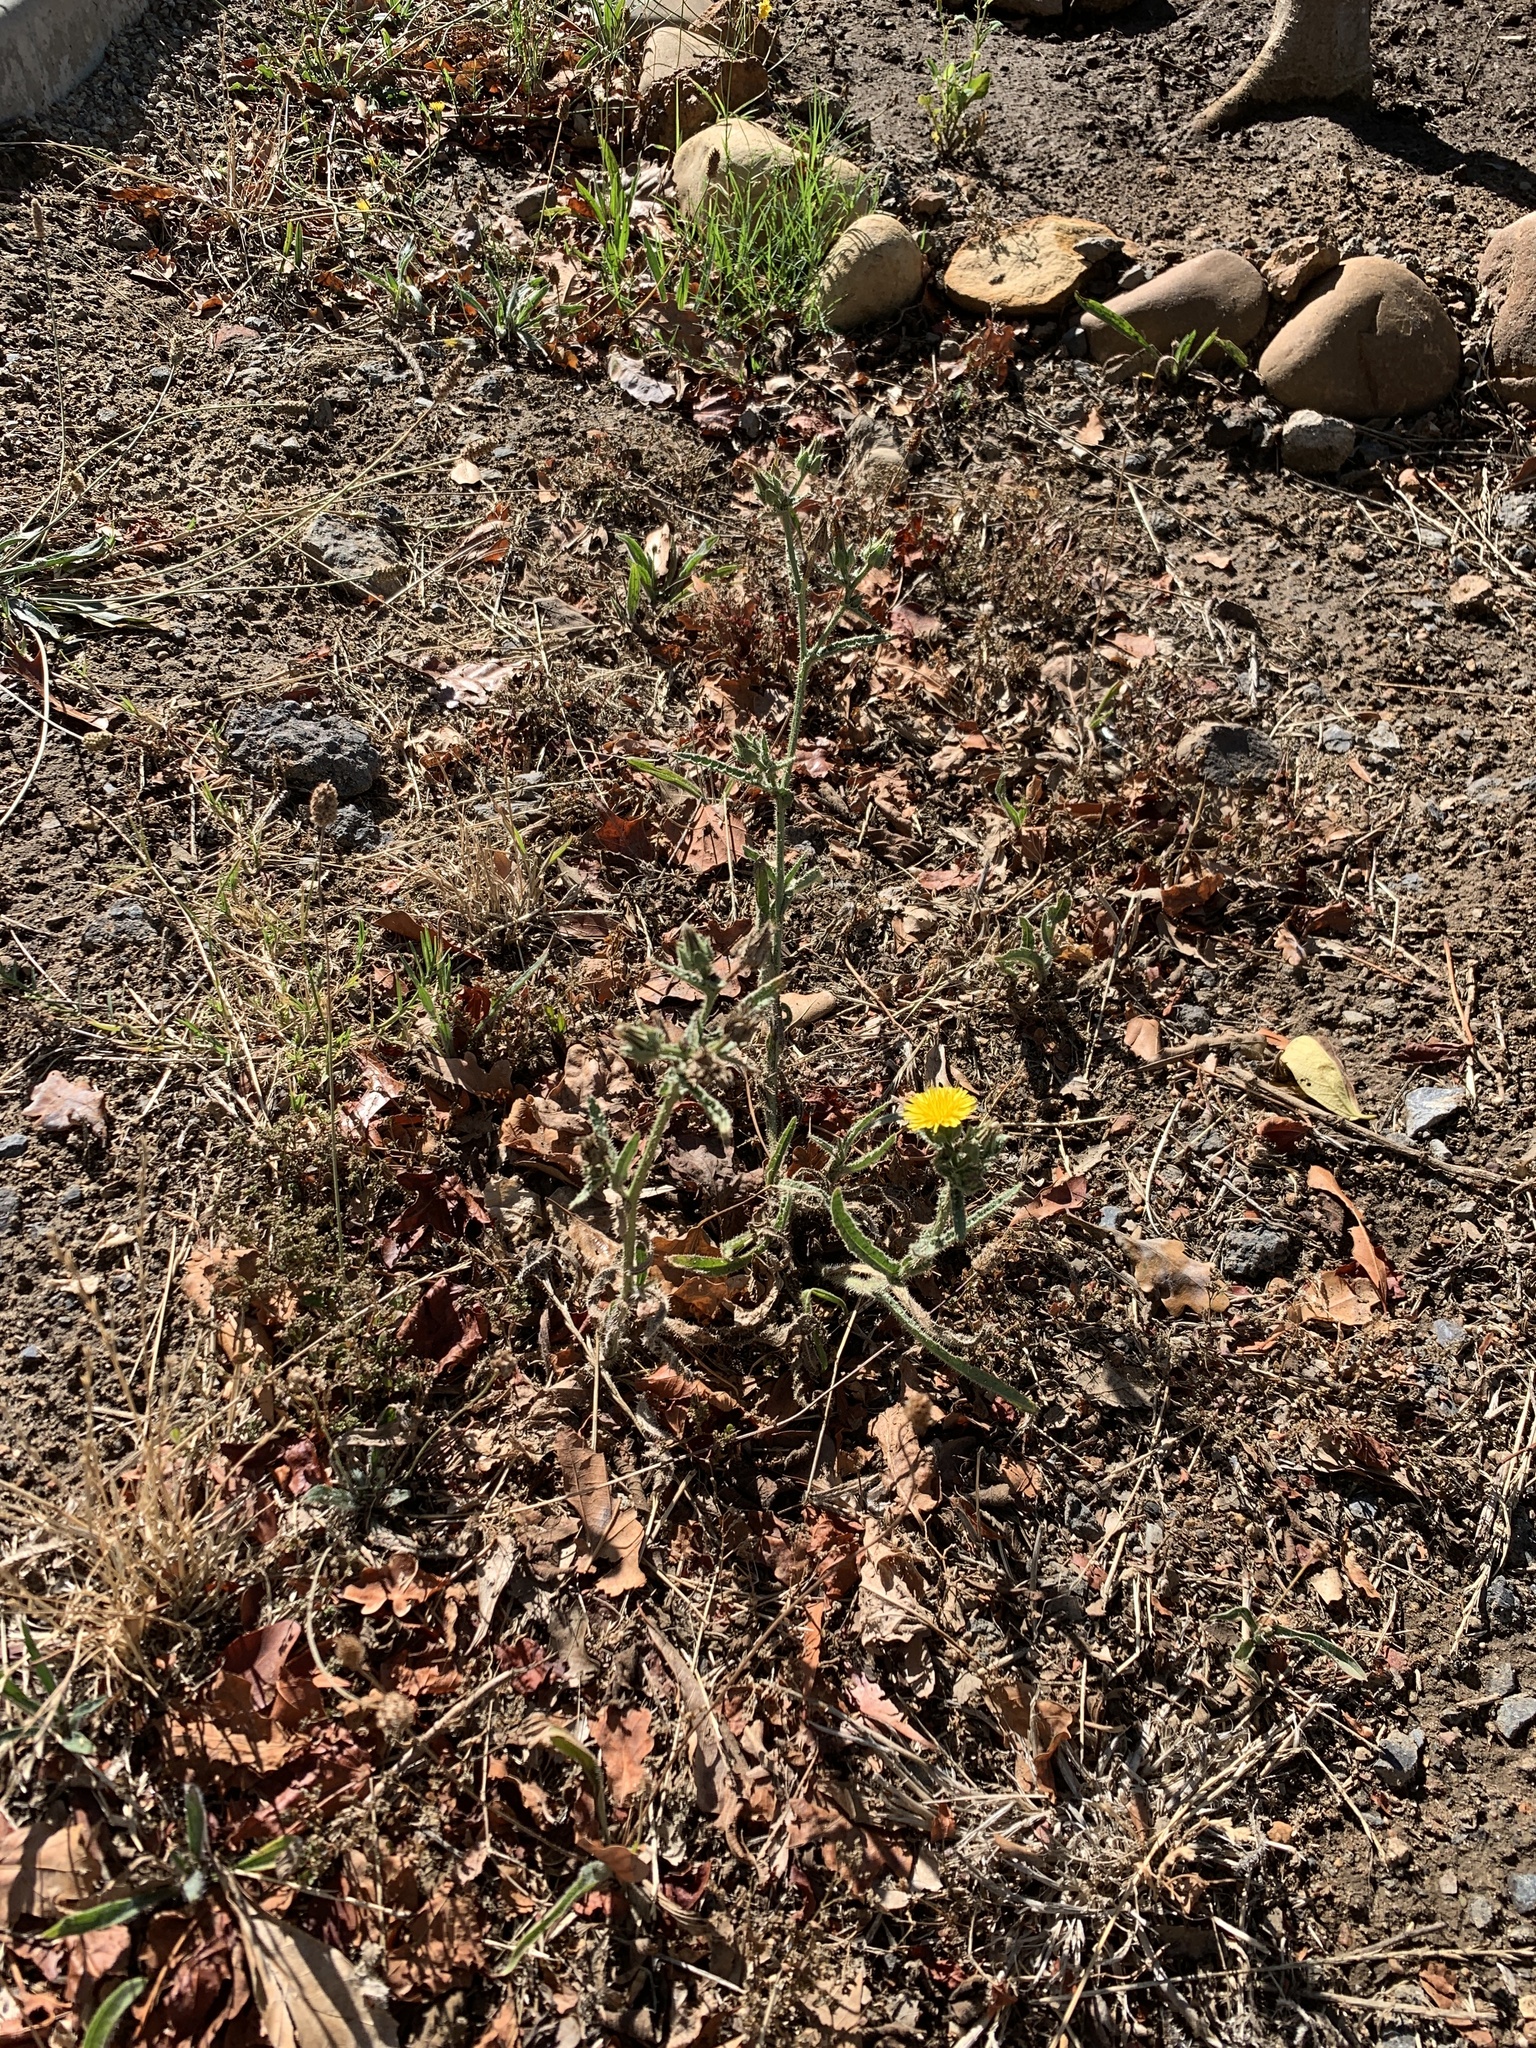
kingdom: Plantae
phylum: Tracheophyta
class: Magnoliopsida
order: Asterales
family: Asteraceae
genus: Helminthotheca
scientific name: Helminthotheca echioides
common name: Ox-tongue
